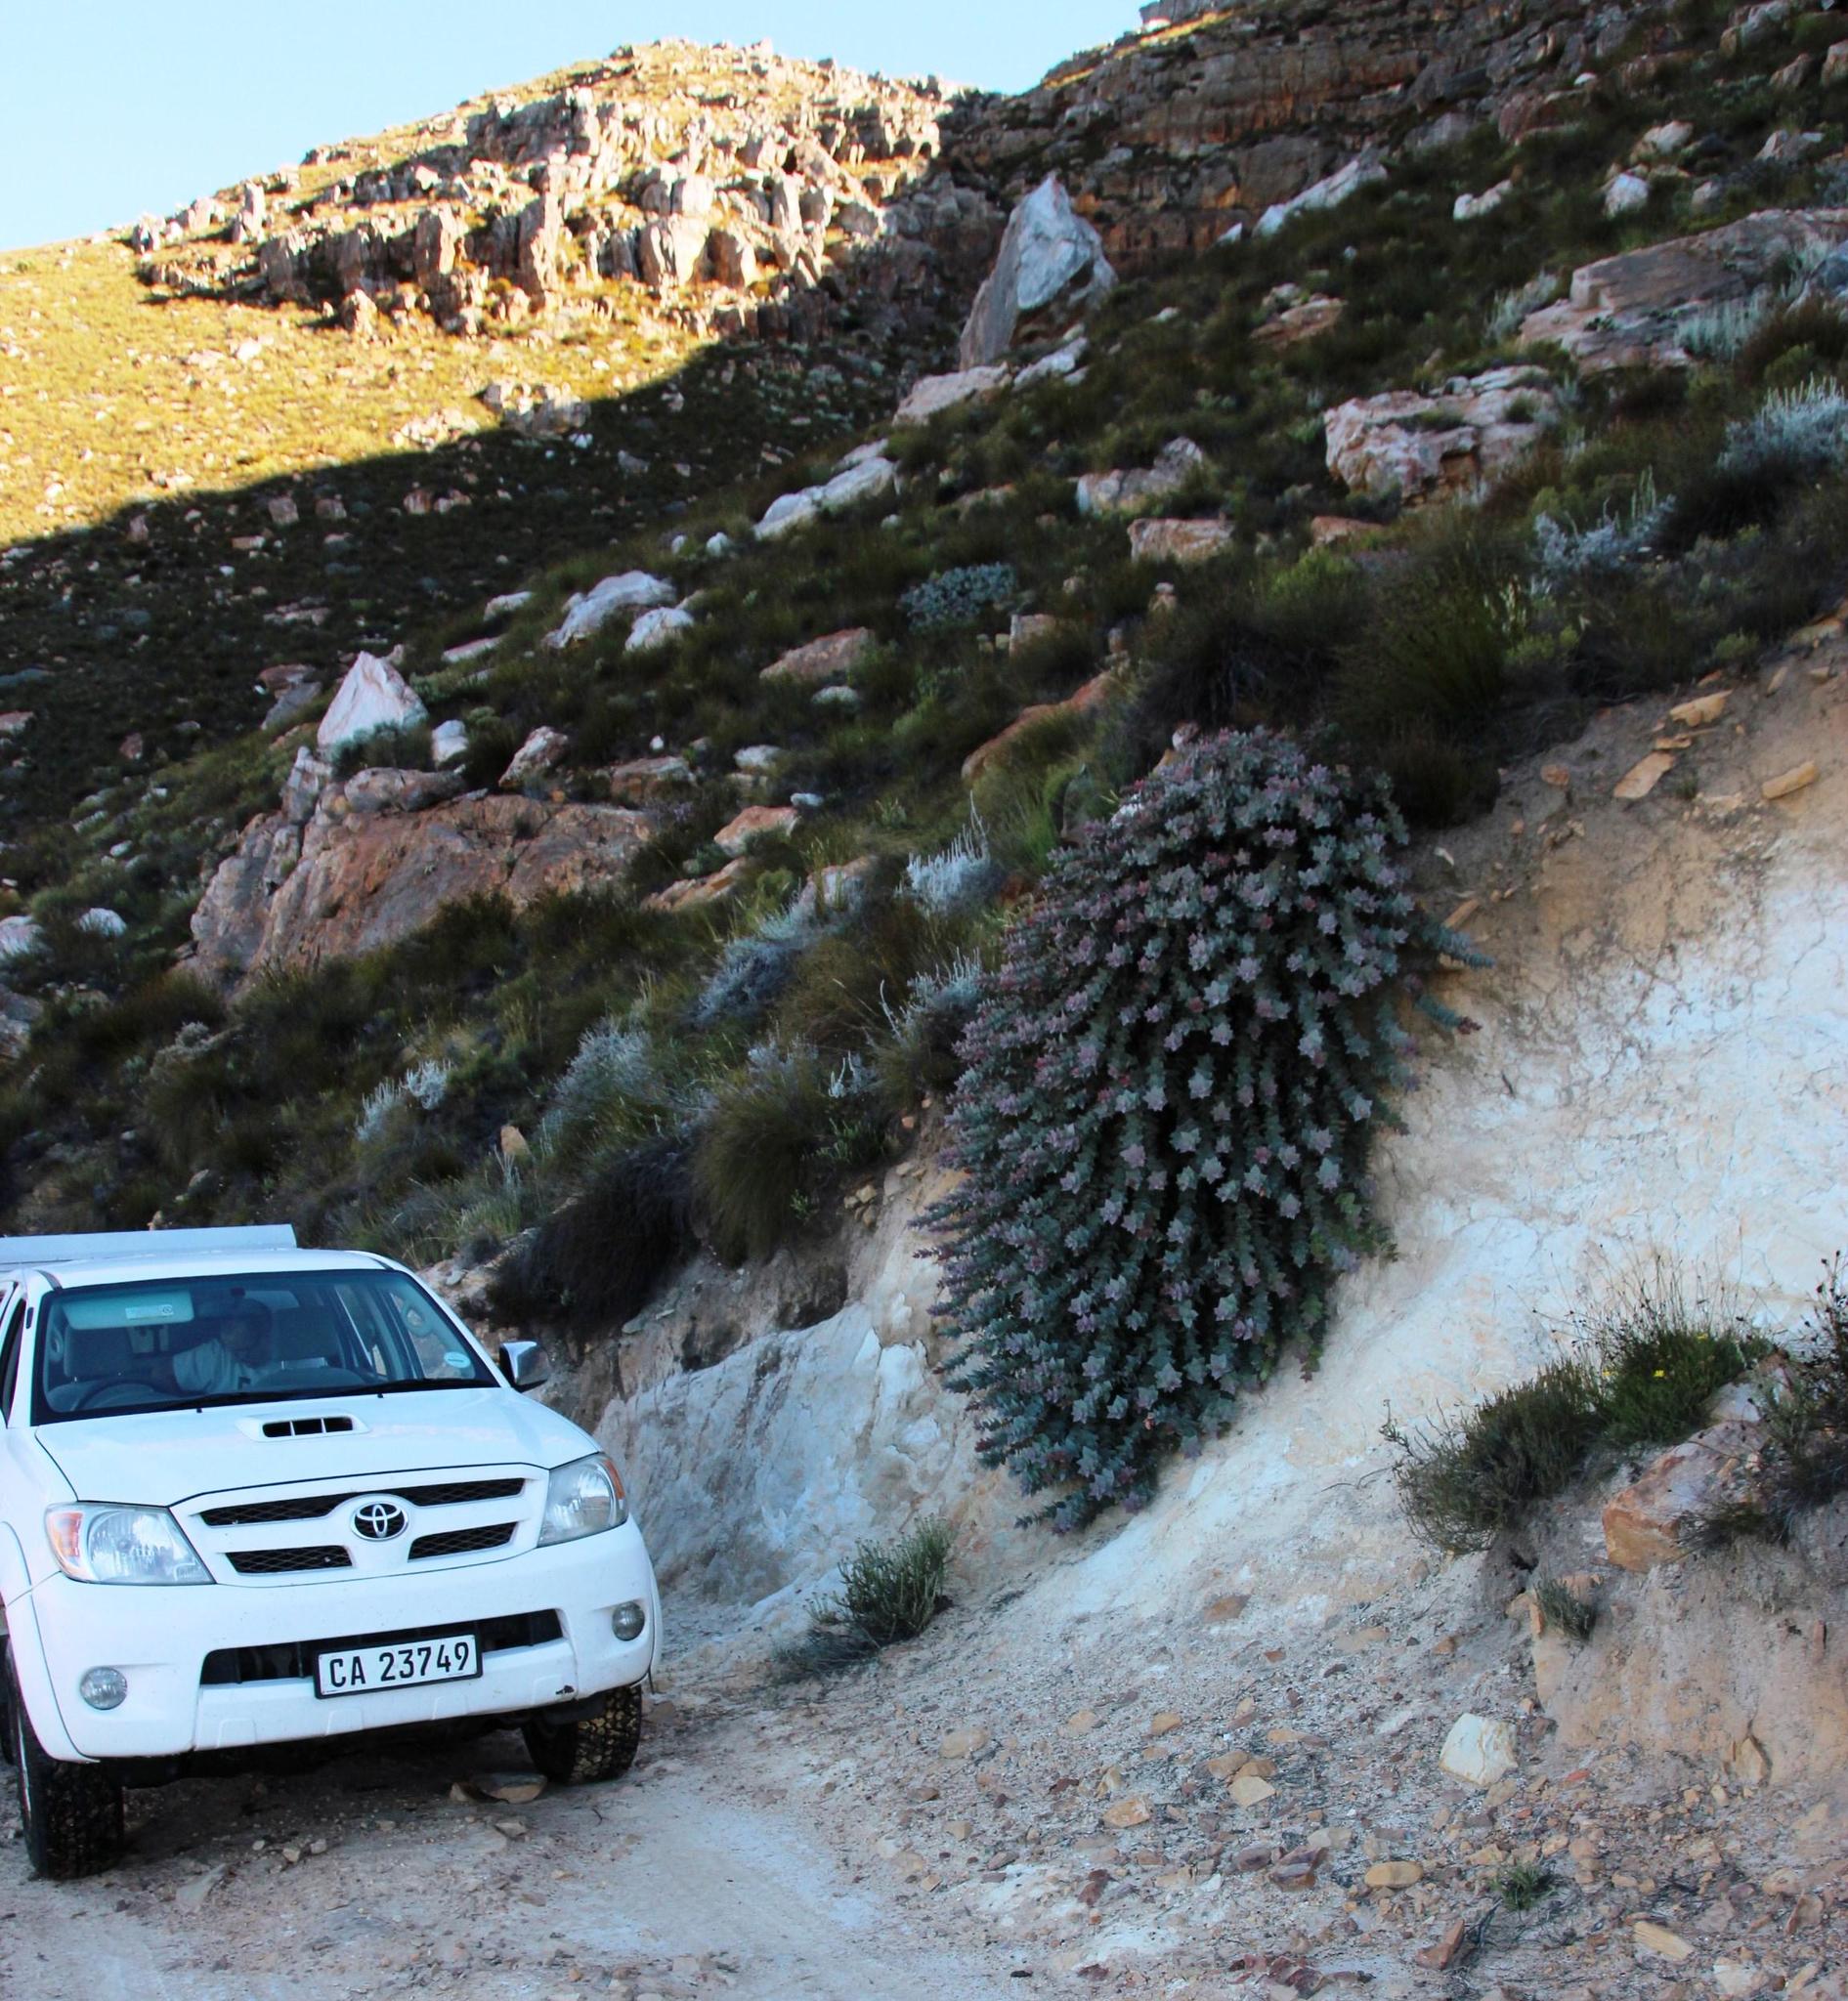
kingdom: Plantae
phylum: Tracheophyta
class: Magnoliopsida
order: Proteales
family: Proteaceae
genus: Protea
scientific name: Protea amplexicaulis
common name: Clasping-leaf sugarbush
